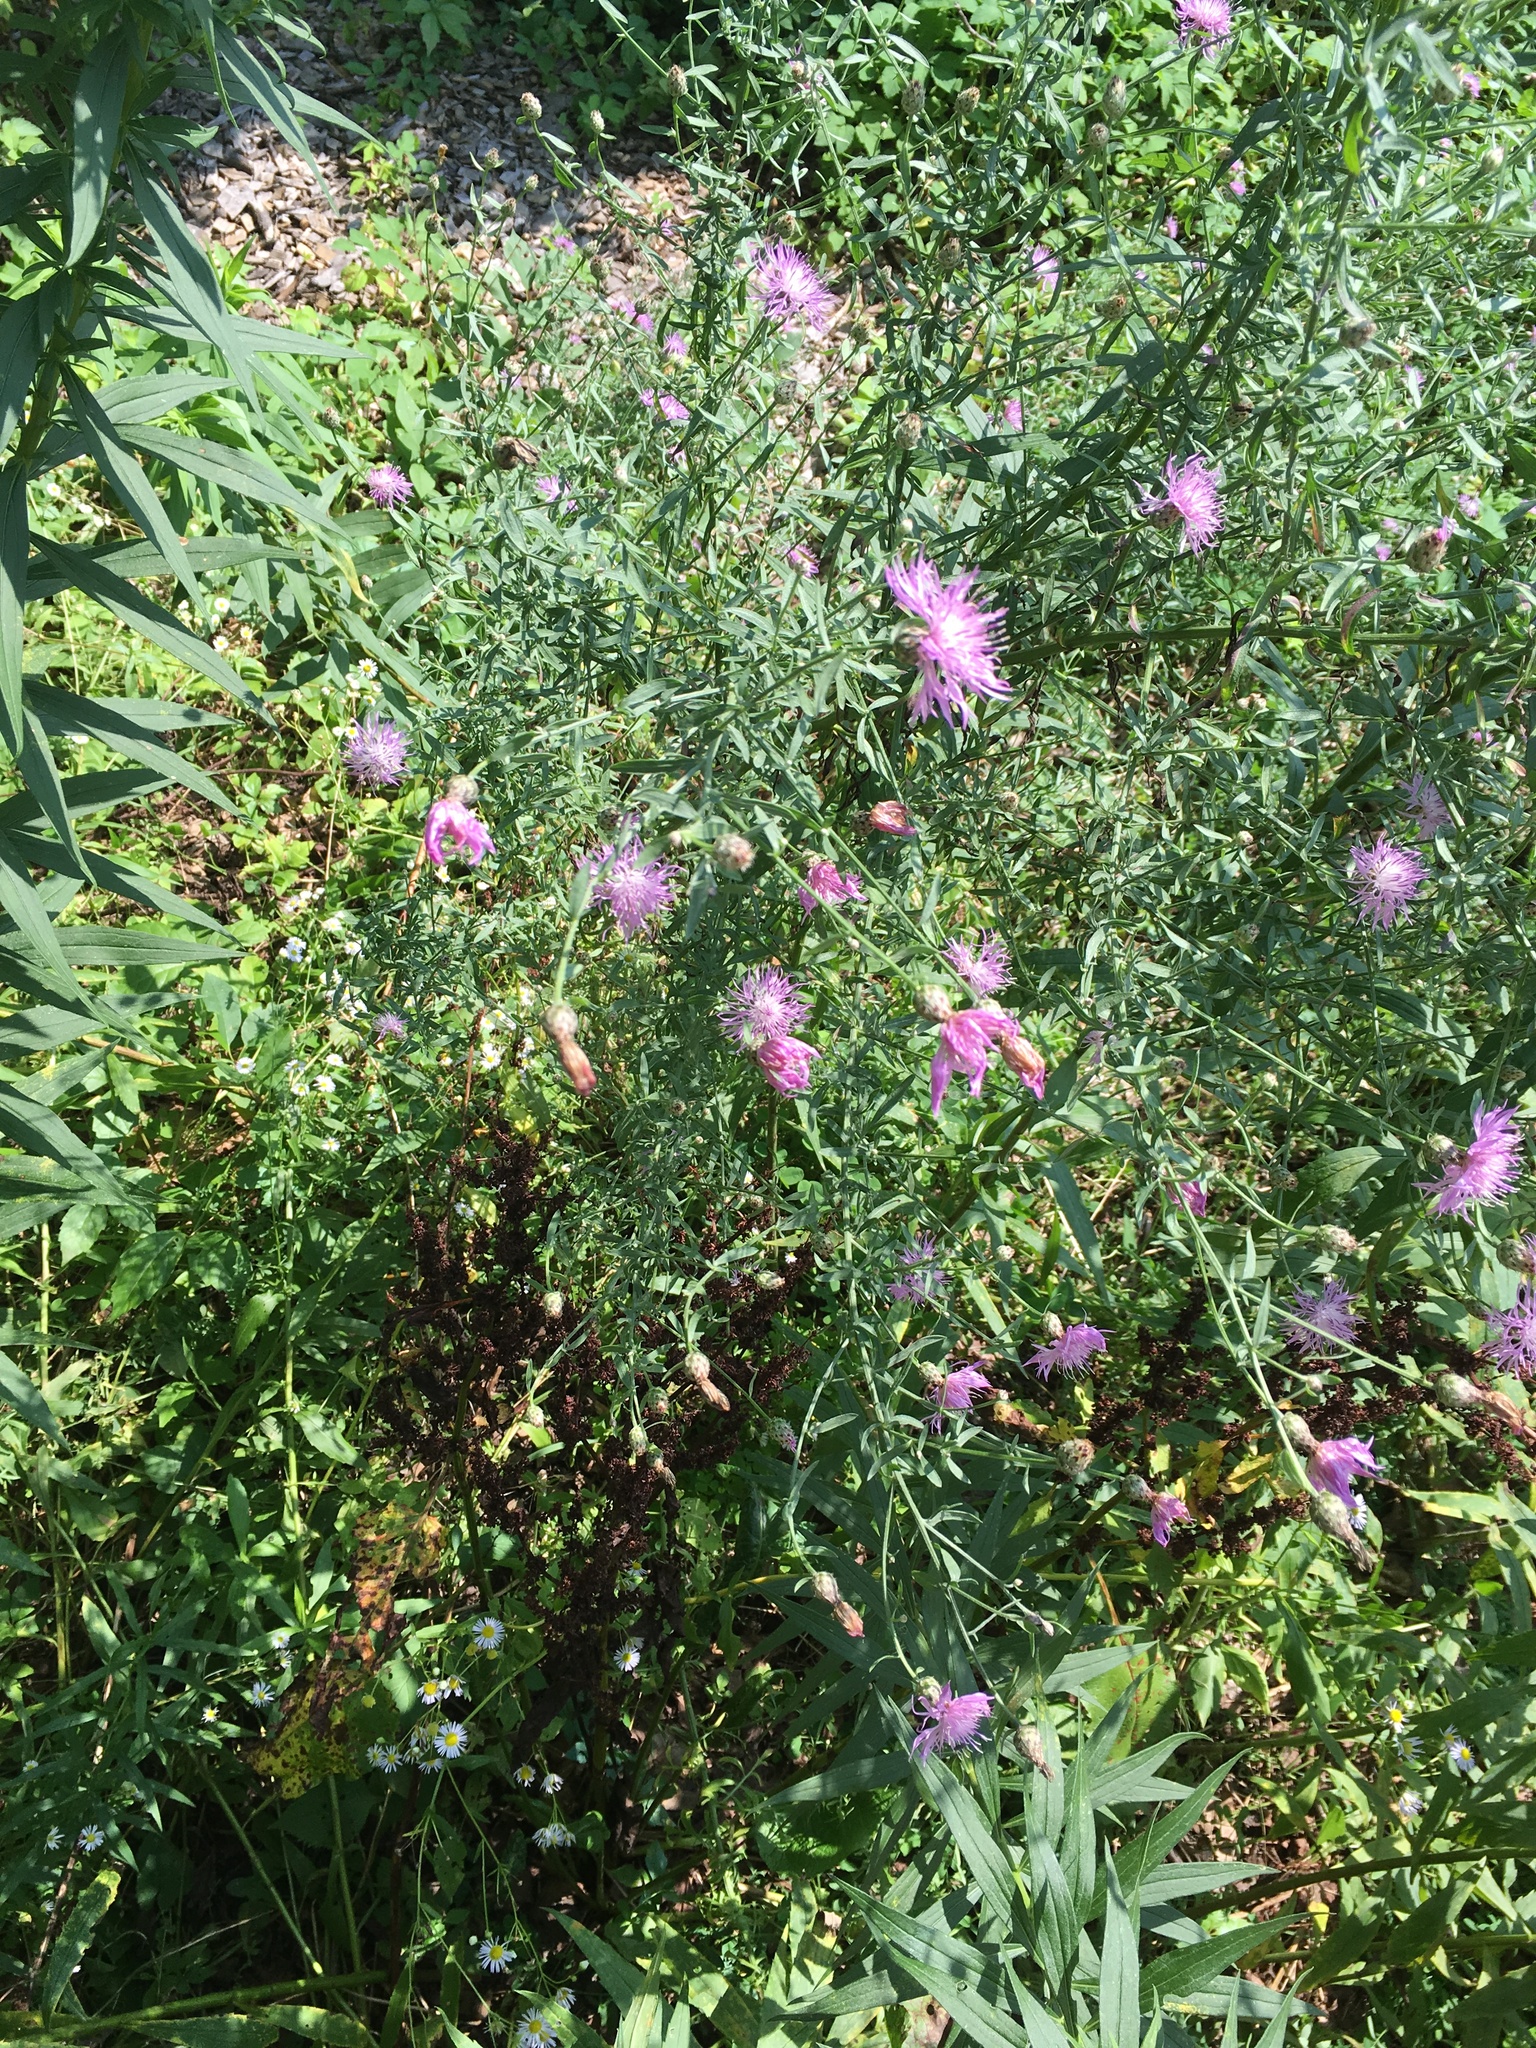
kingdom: Plantae
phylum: Tracheophyta
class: Magnoliopsida
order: Asterales
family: Asteraceae
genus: Centaurea
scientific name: Centaurea stoebe
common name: Spotted knapweed
